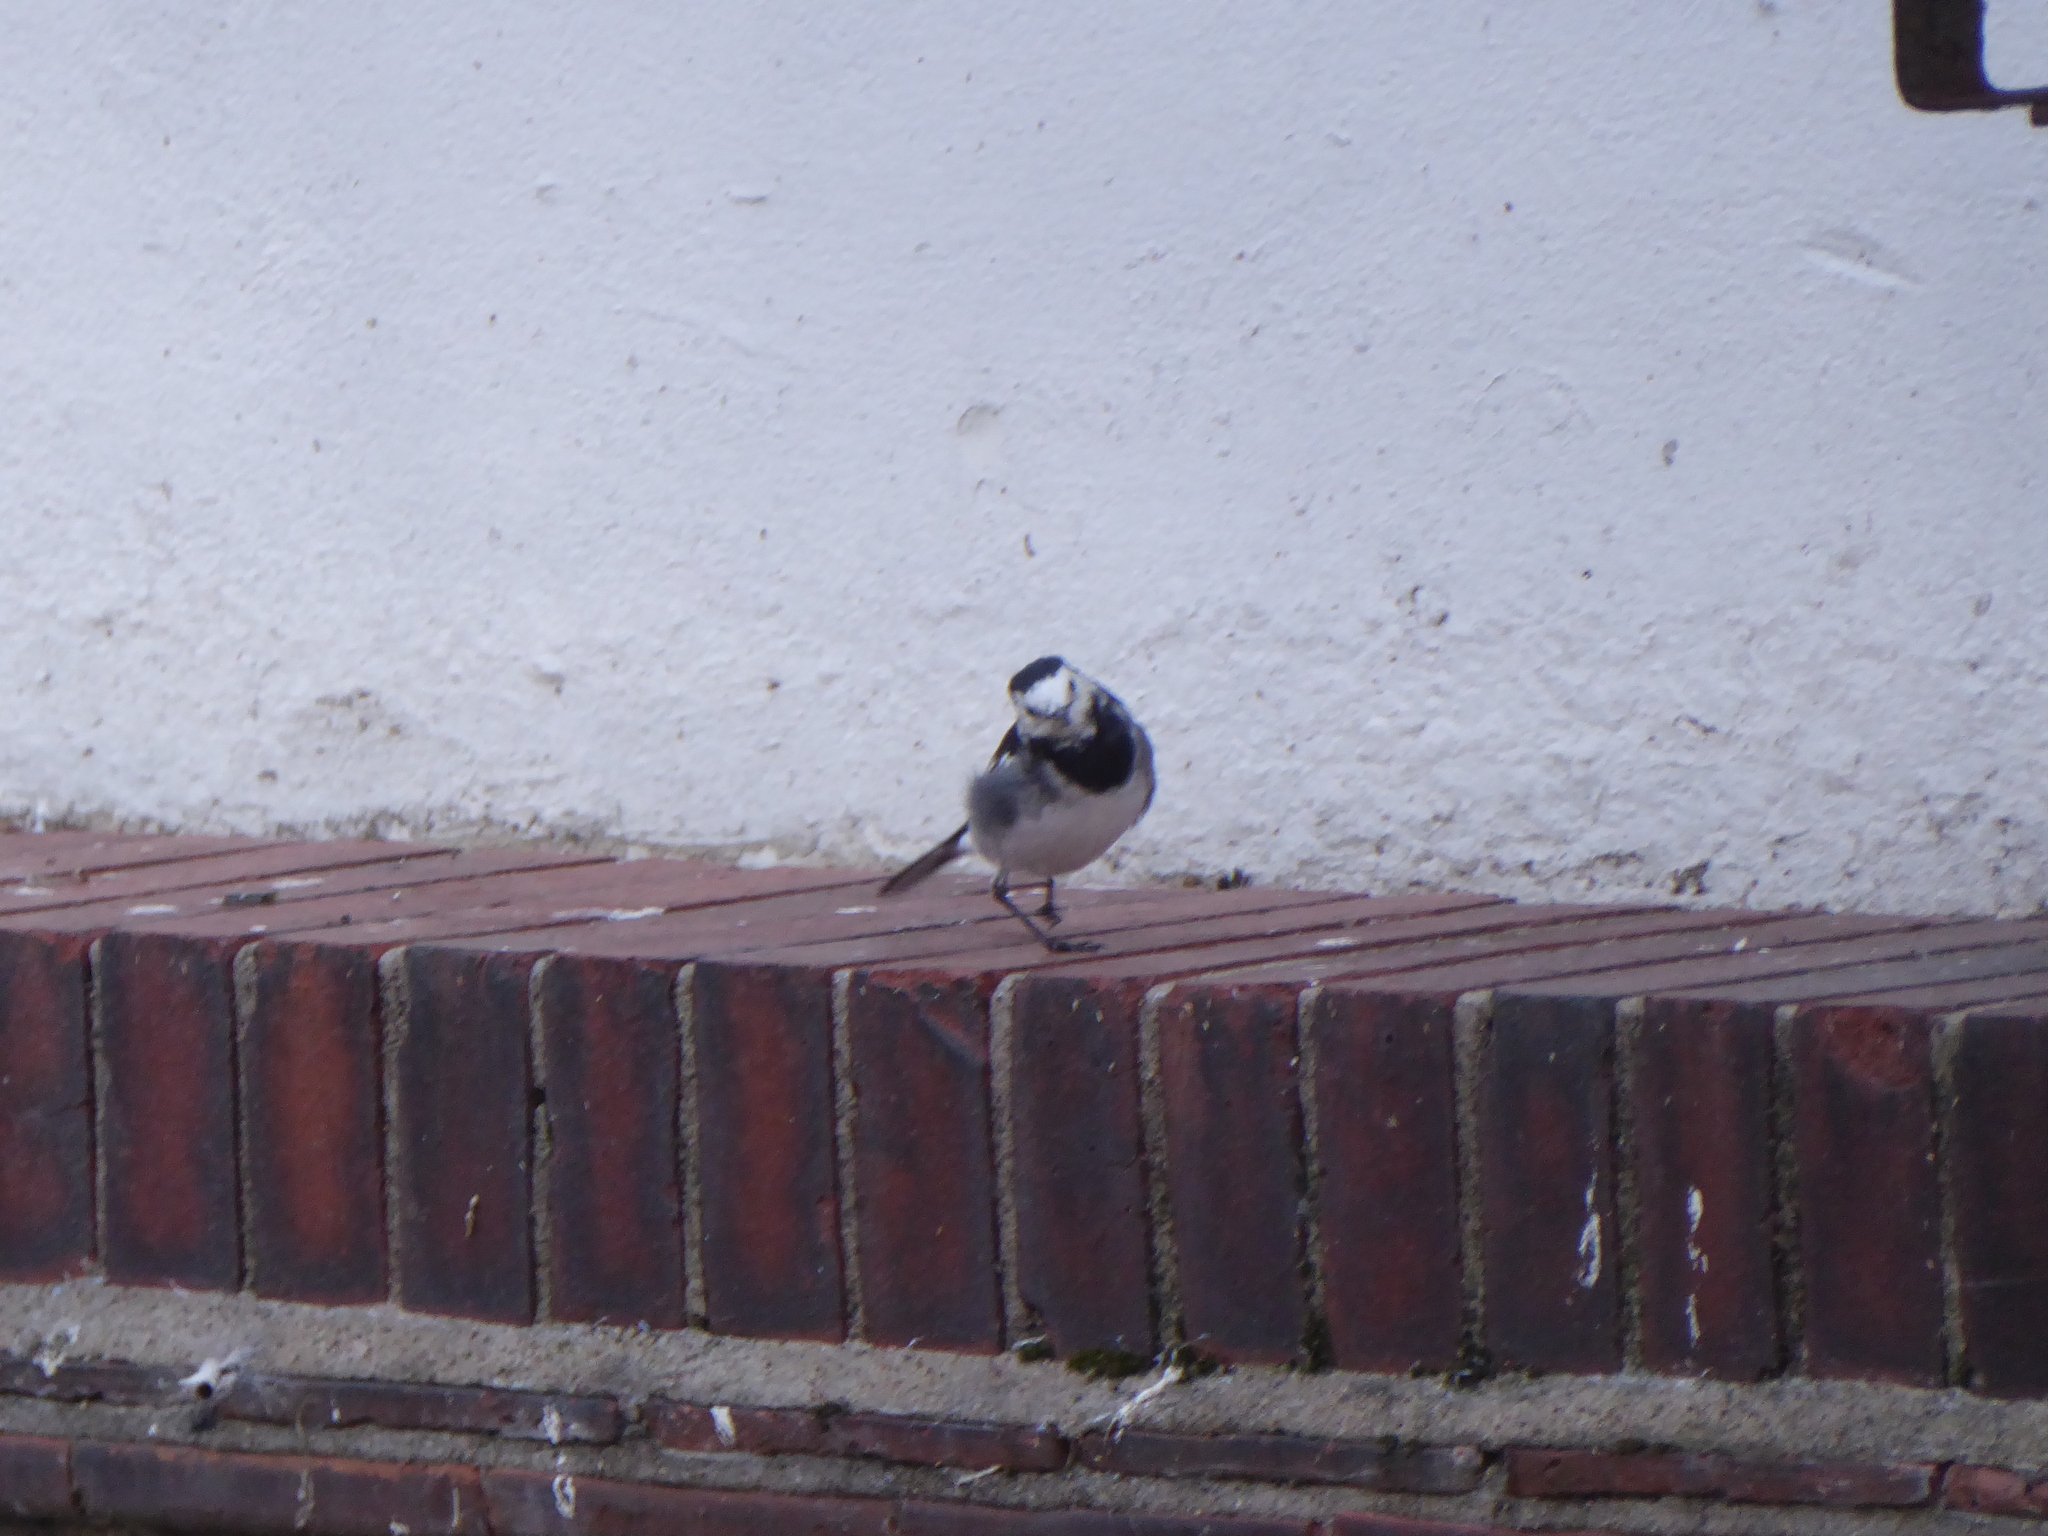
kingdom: Animalia
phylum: Chordata
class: Aves
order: Passeriformes
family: Motacillidae
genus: Motacilla
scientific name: Motacilla alba
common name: White wagtail
